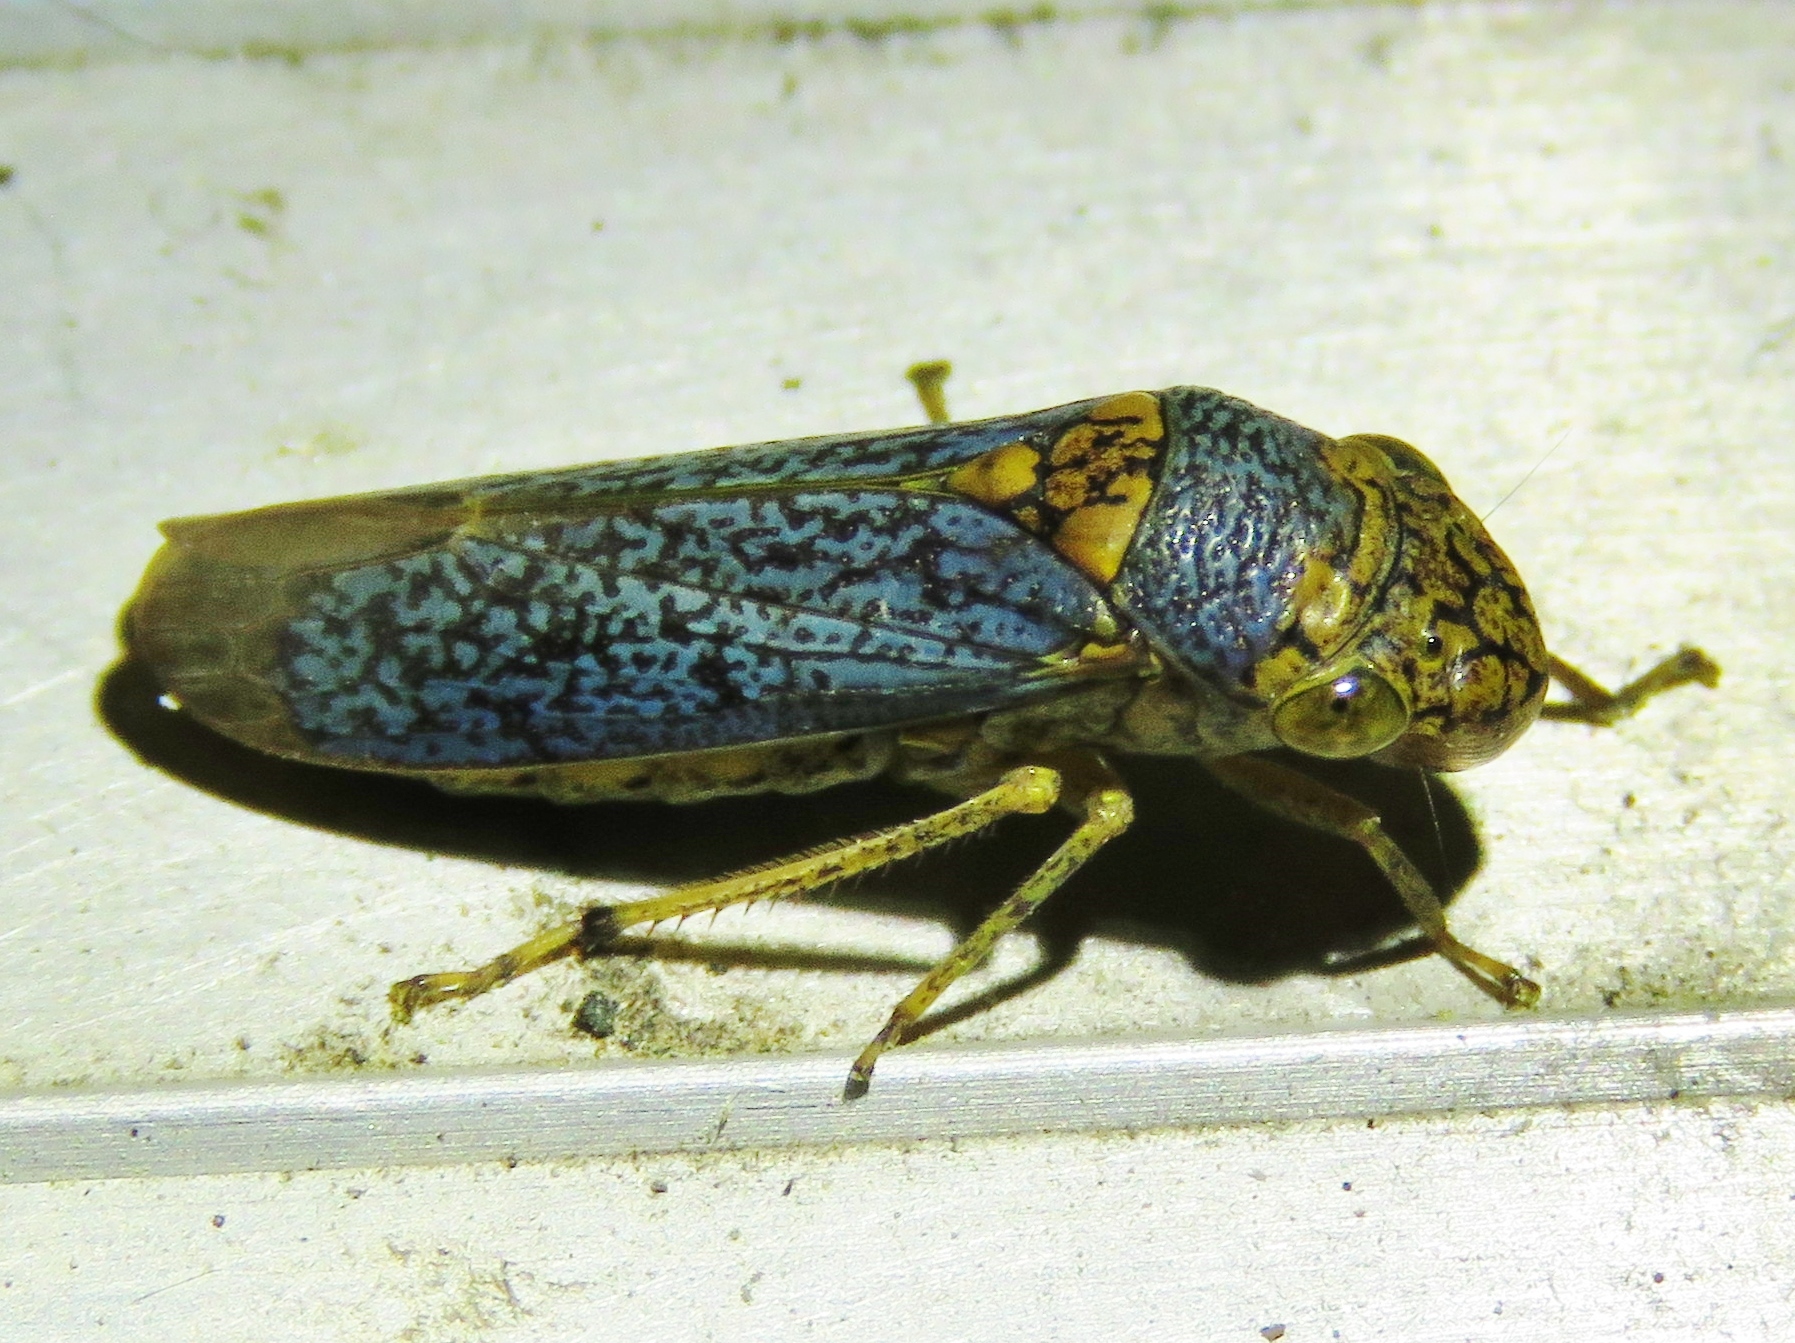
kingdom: Animalia
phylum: Arthropoda
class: Insecta
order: Hemiptera
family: Cicadellidae
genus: Oncometopia
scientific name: Oncometopia orbona
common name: Broad-headed sharpshooter
